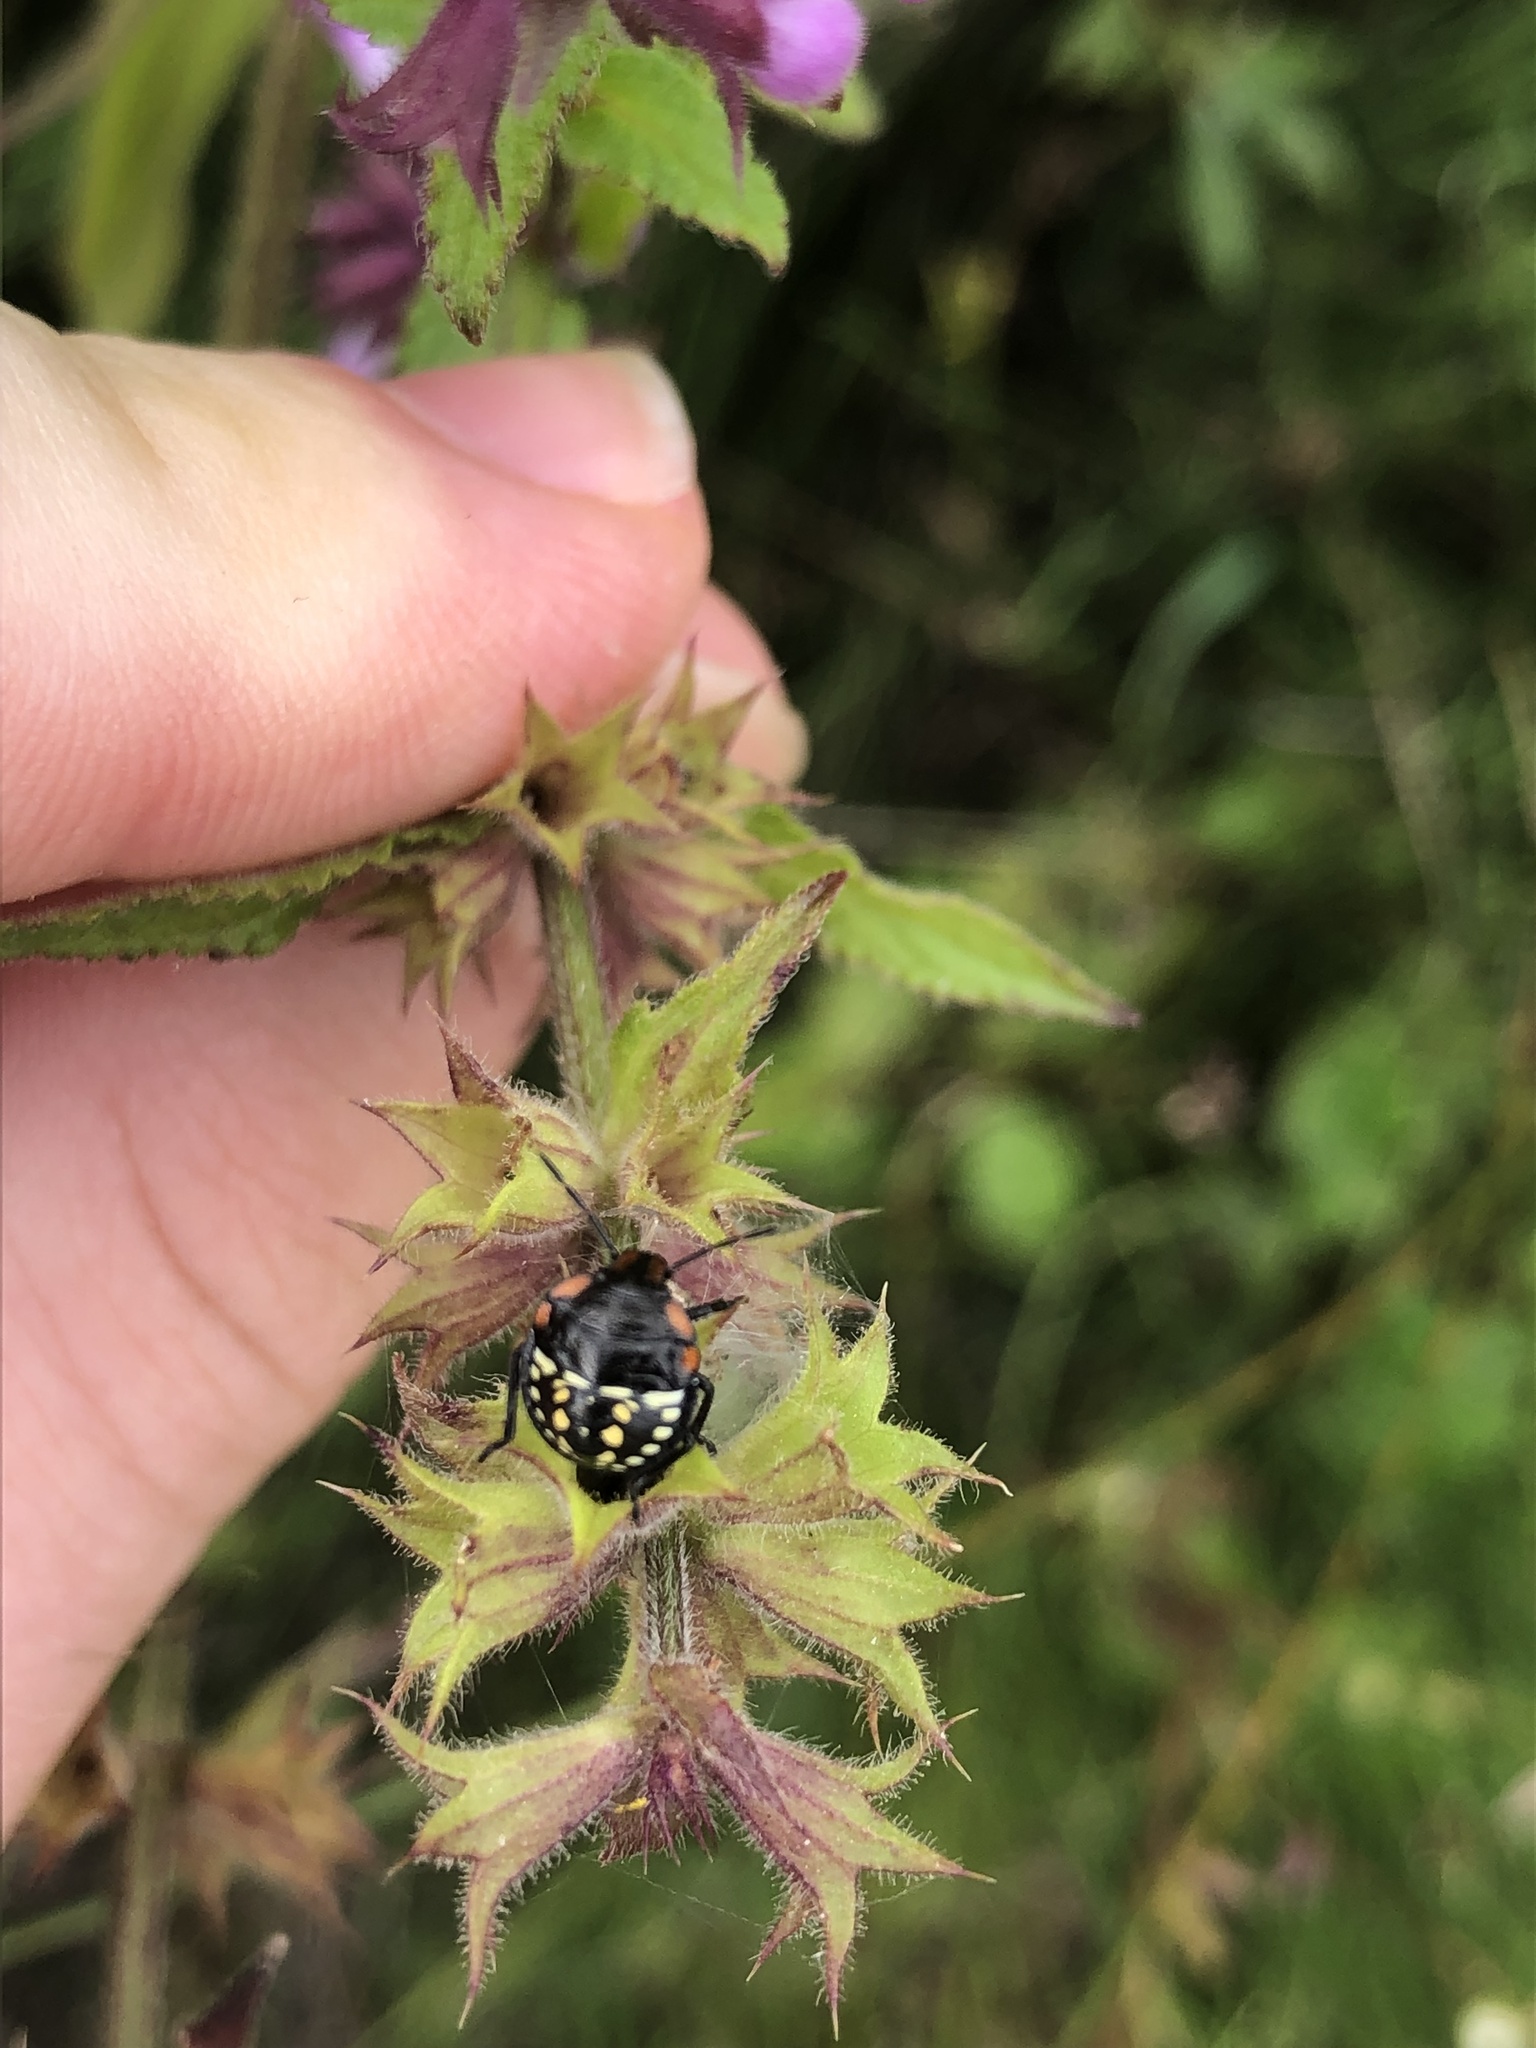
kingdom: Animalia
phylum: Arthropoda
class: Insecta
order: Hemiptera
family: Pentatomidae
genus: Nezara
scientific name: Nezara viridula
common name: Southern green stink bug
